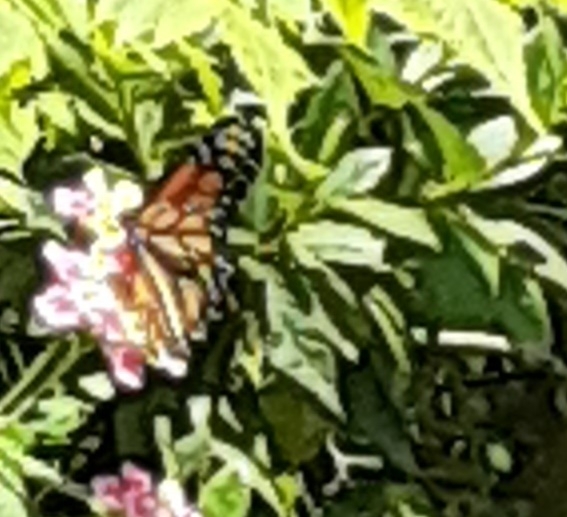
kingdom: Animalia
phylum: Arthropoda
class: Insecta
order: Lepidoptera
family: Nymphalidae
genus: Danaus
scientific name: Danaus plexippus
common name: Monarch
